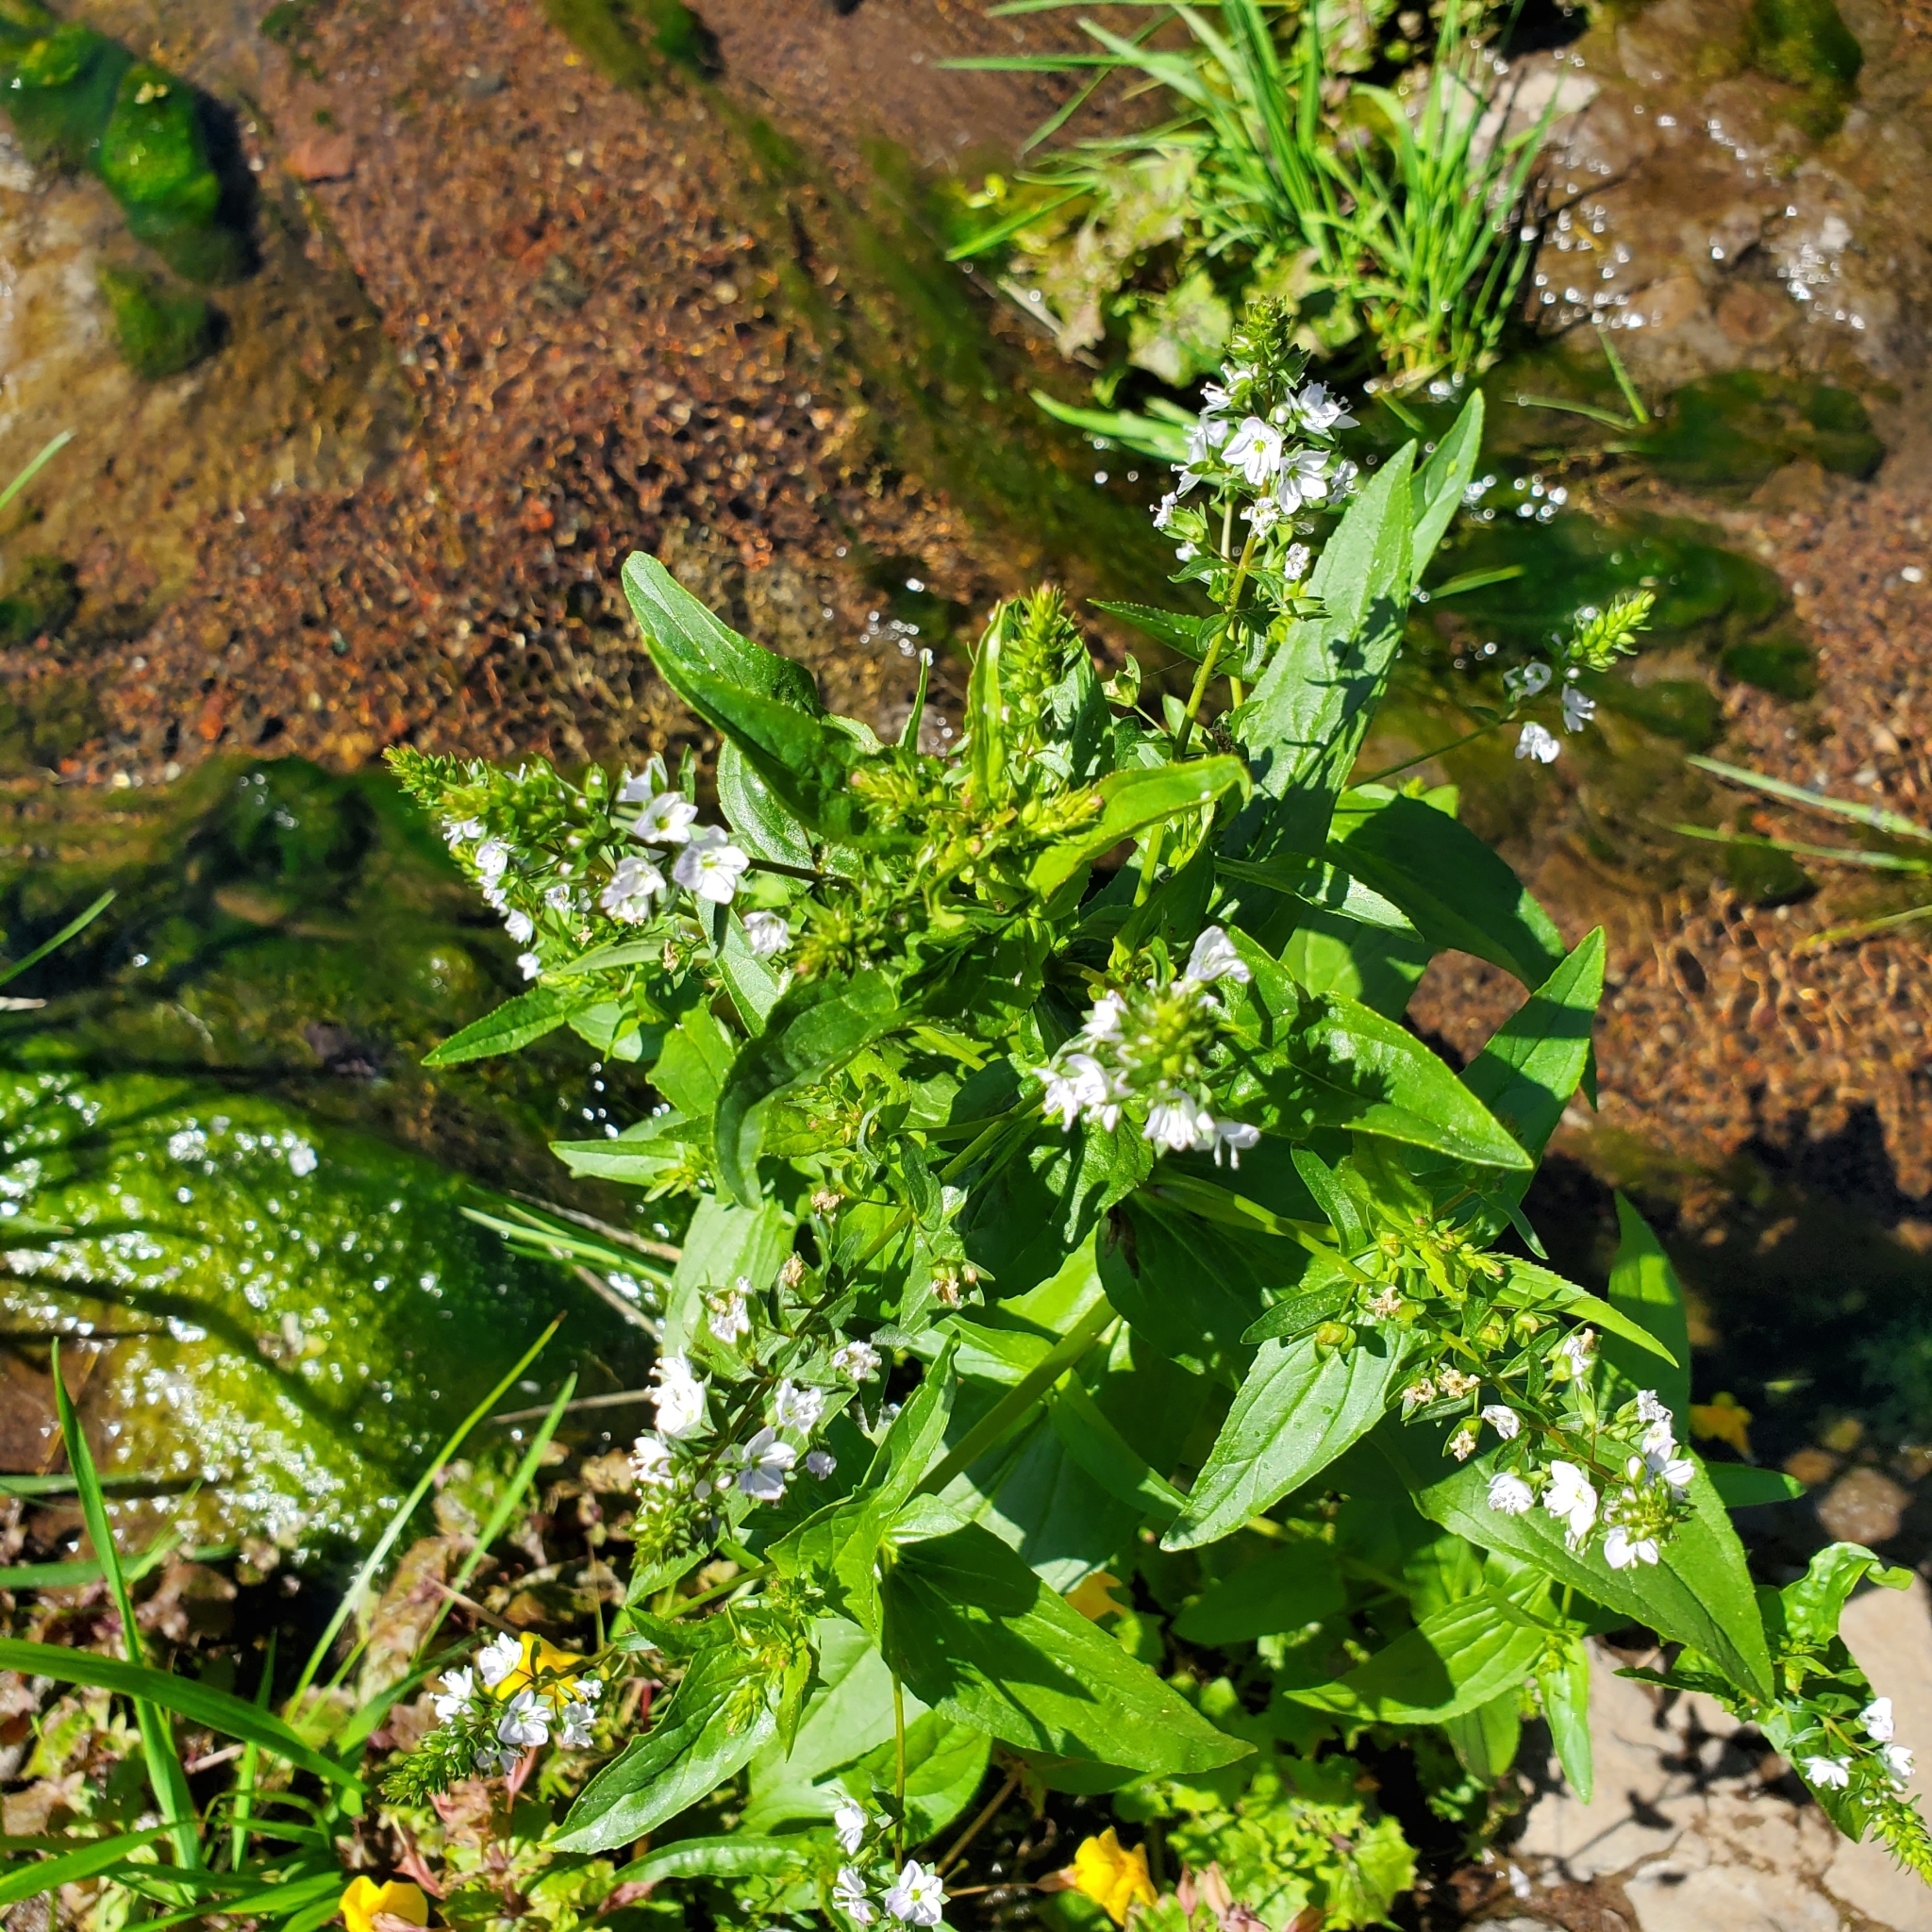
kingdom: Plantae
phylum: Tracheophyta
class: Magnoliopsida
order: Lamiales
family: Plantaginaceae
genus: Veronica
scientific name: Veronica anagallis-aquatica
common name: Water speedwell
